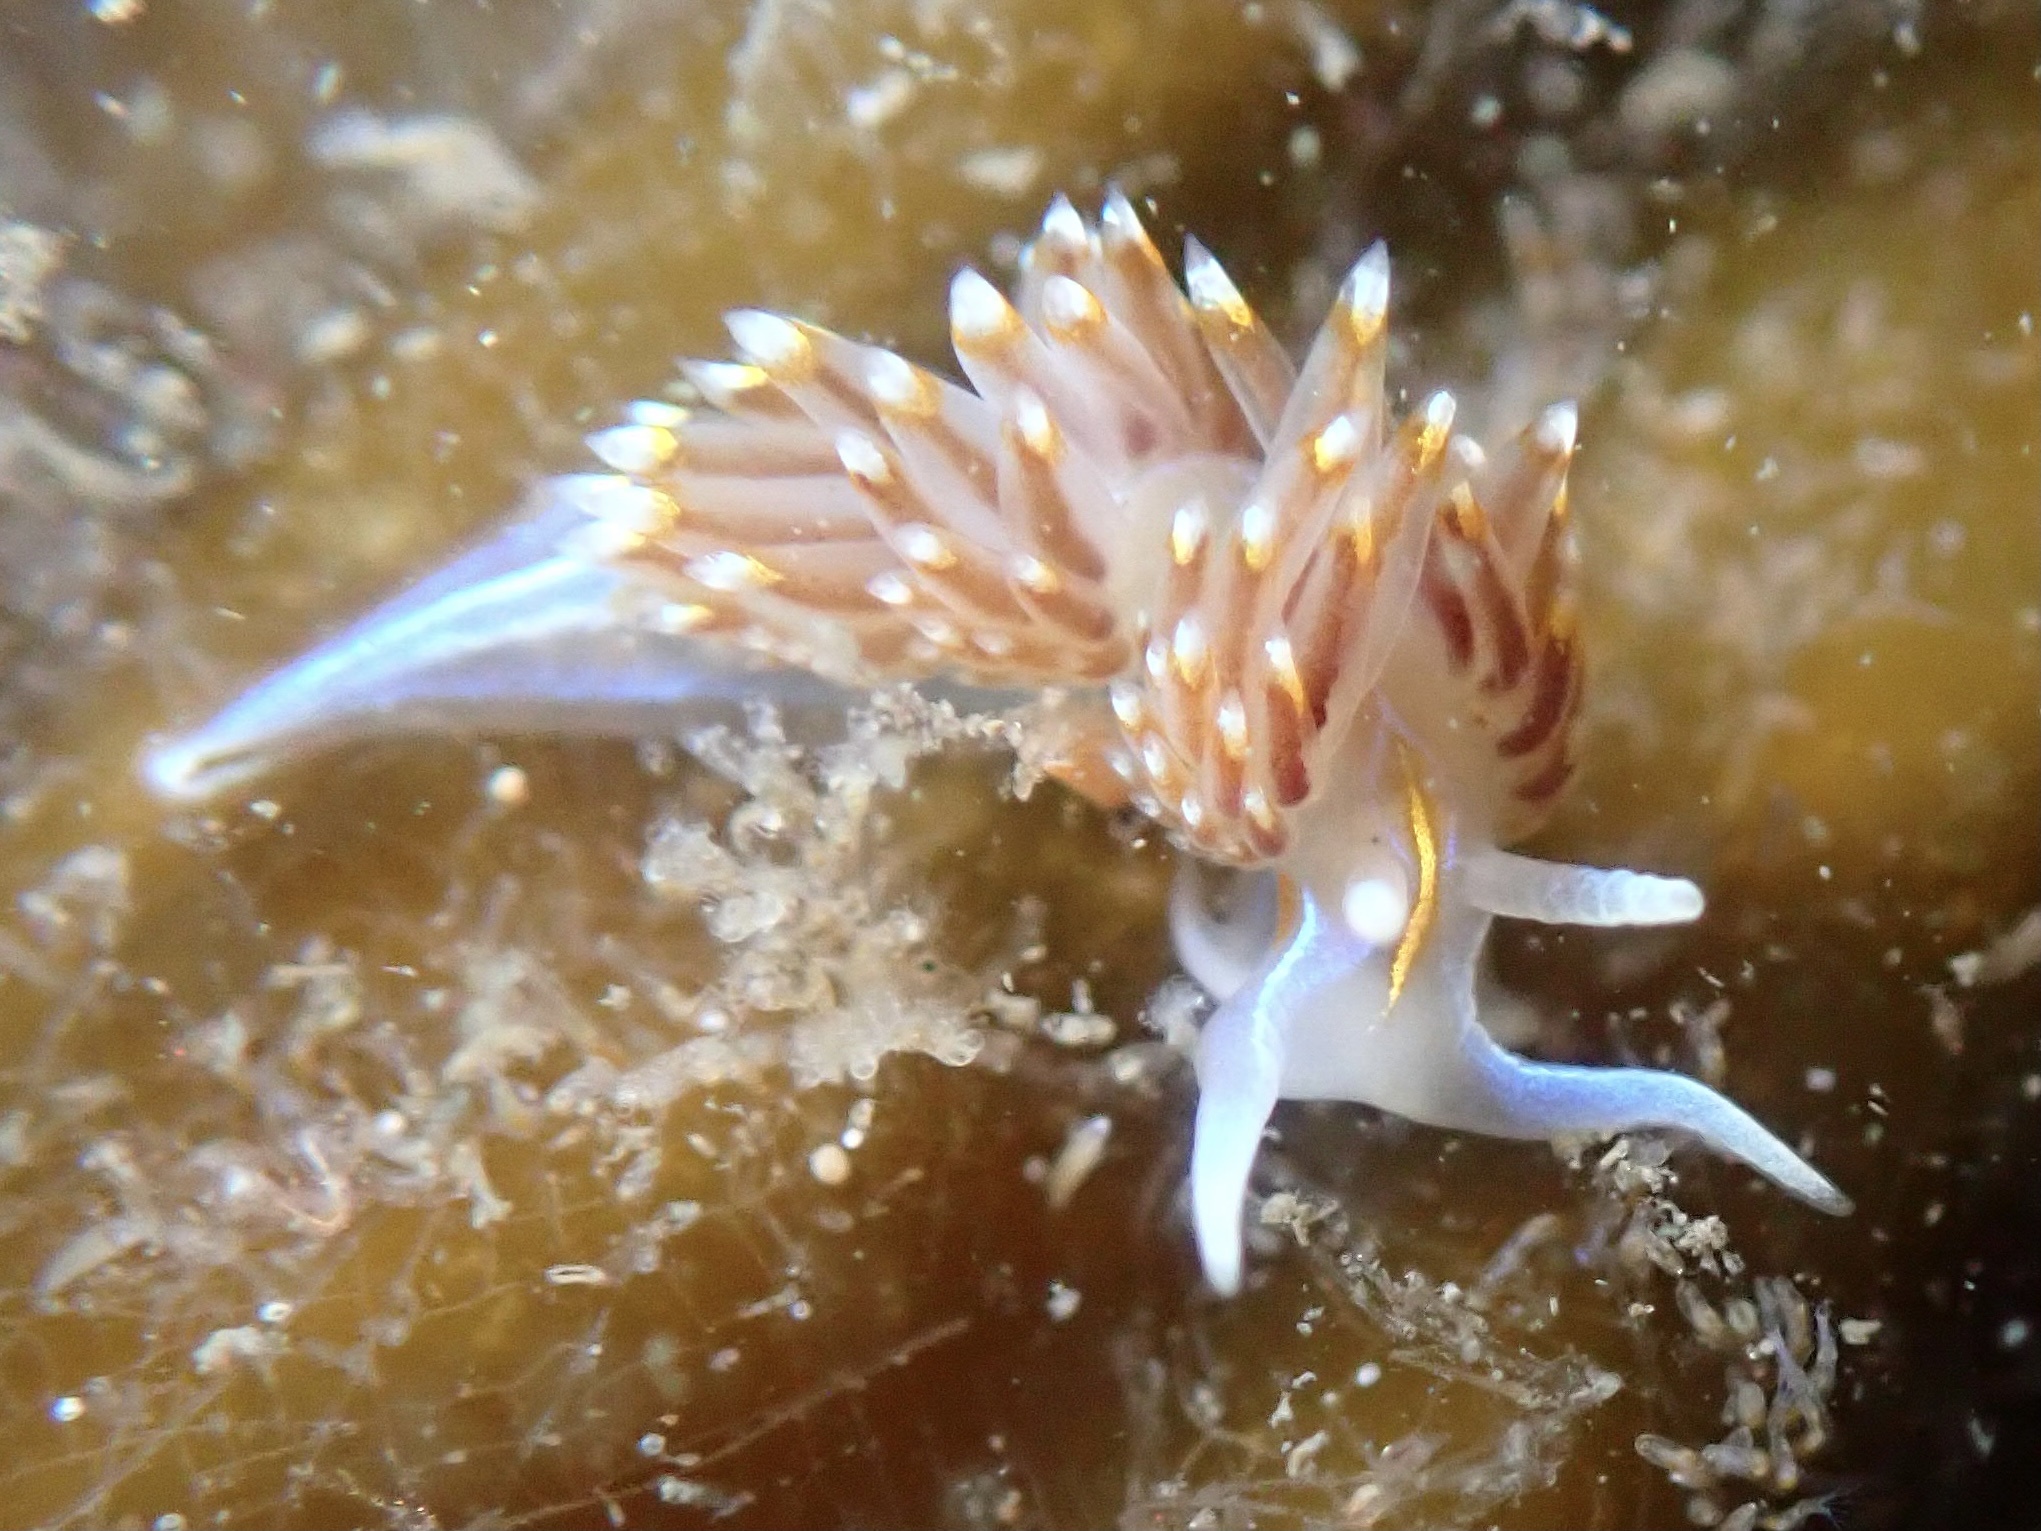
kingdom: Animalia
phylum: Mollusca
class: Gastropoda
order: Nudibranchia
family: Myrrhinidae
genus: Hermissenda
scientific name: Hermissenda opalescens
